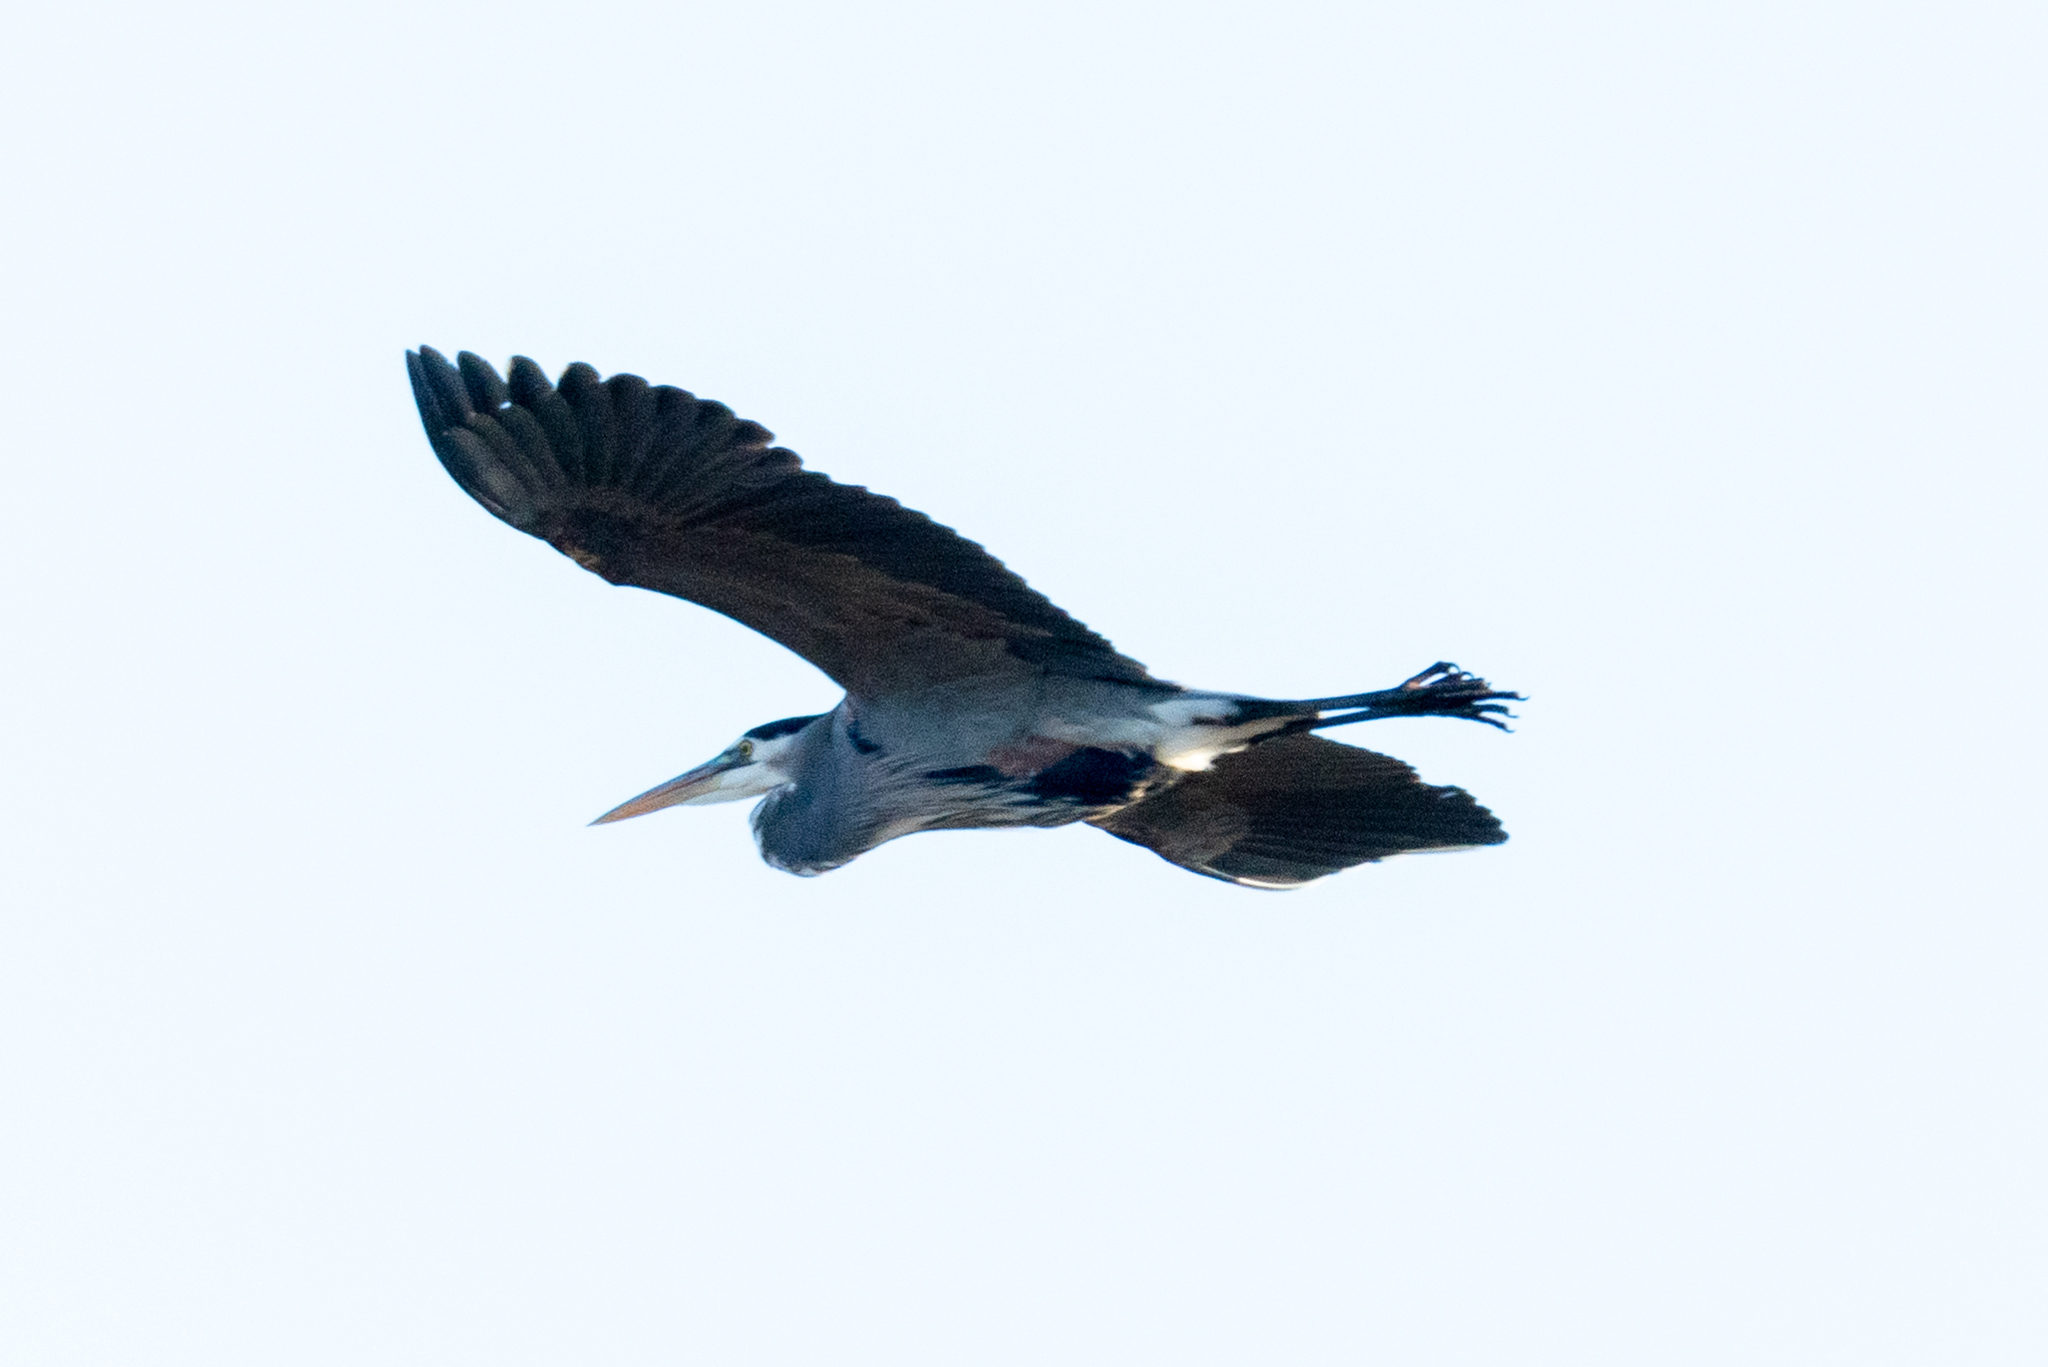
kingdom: Animalia
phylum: Chordata
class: Aves
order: Pelecaniformes
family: Ardeidae
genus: Ardea
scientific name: Ardea herodias
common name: Great blue heron
